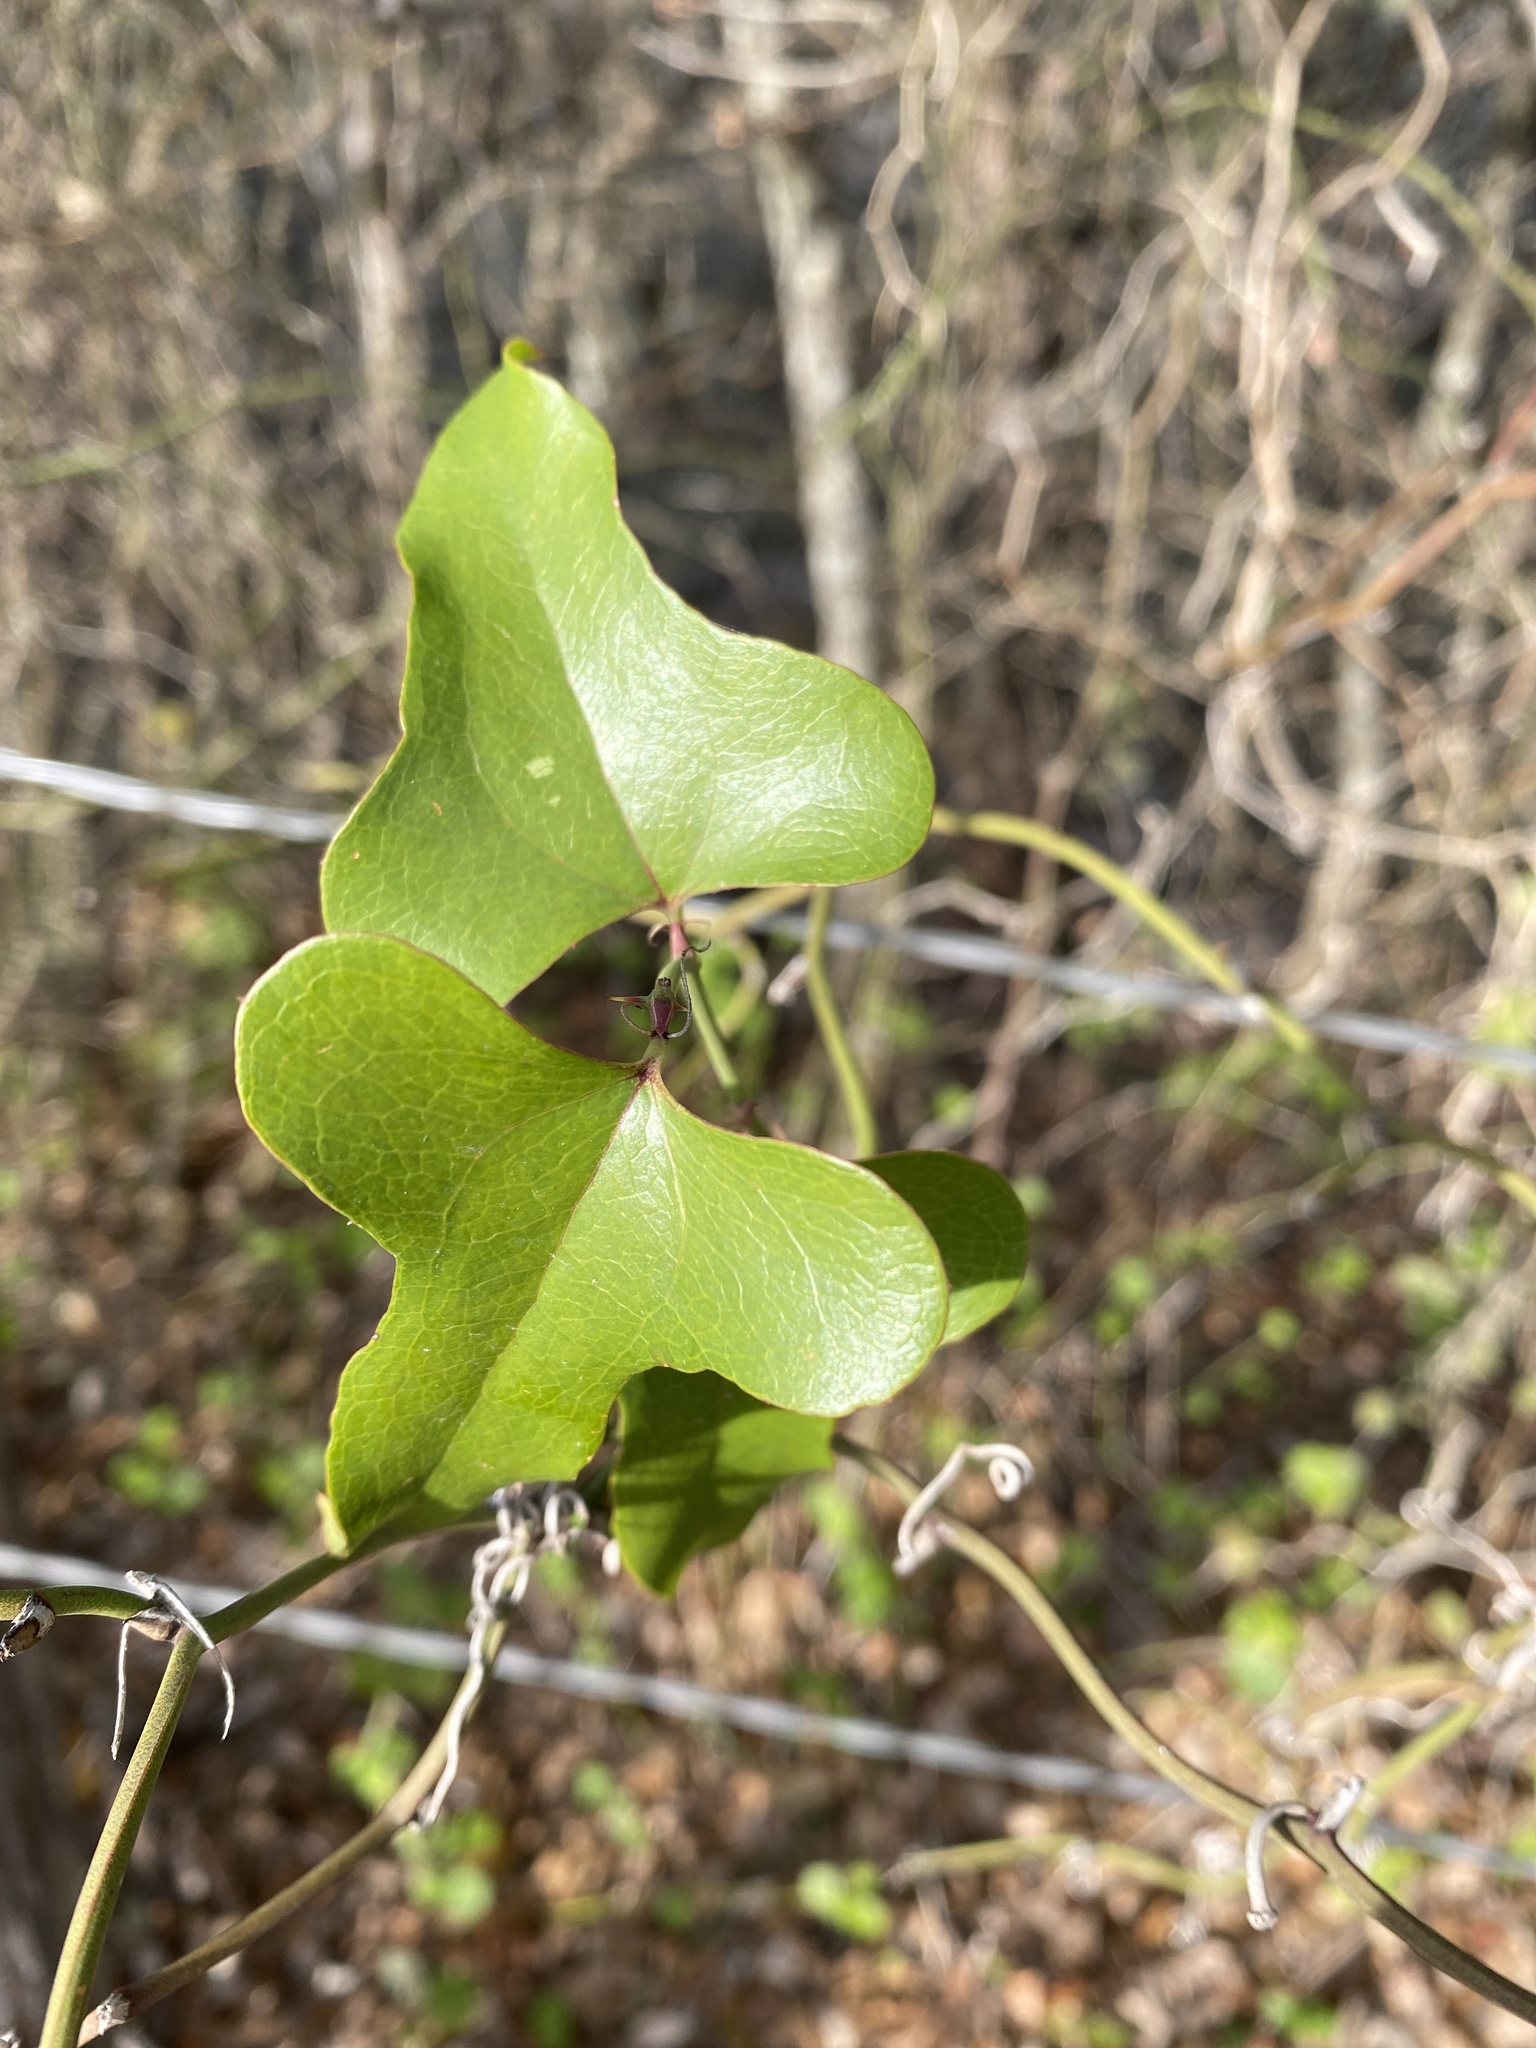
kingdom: Plantae
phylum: Tracheophyta
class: Liliopsida
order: Liliales
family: Smilacaceae
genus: Smilax
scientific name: Smilax bona-nox
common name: Catbrier
